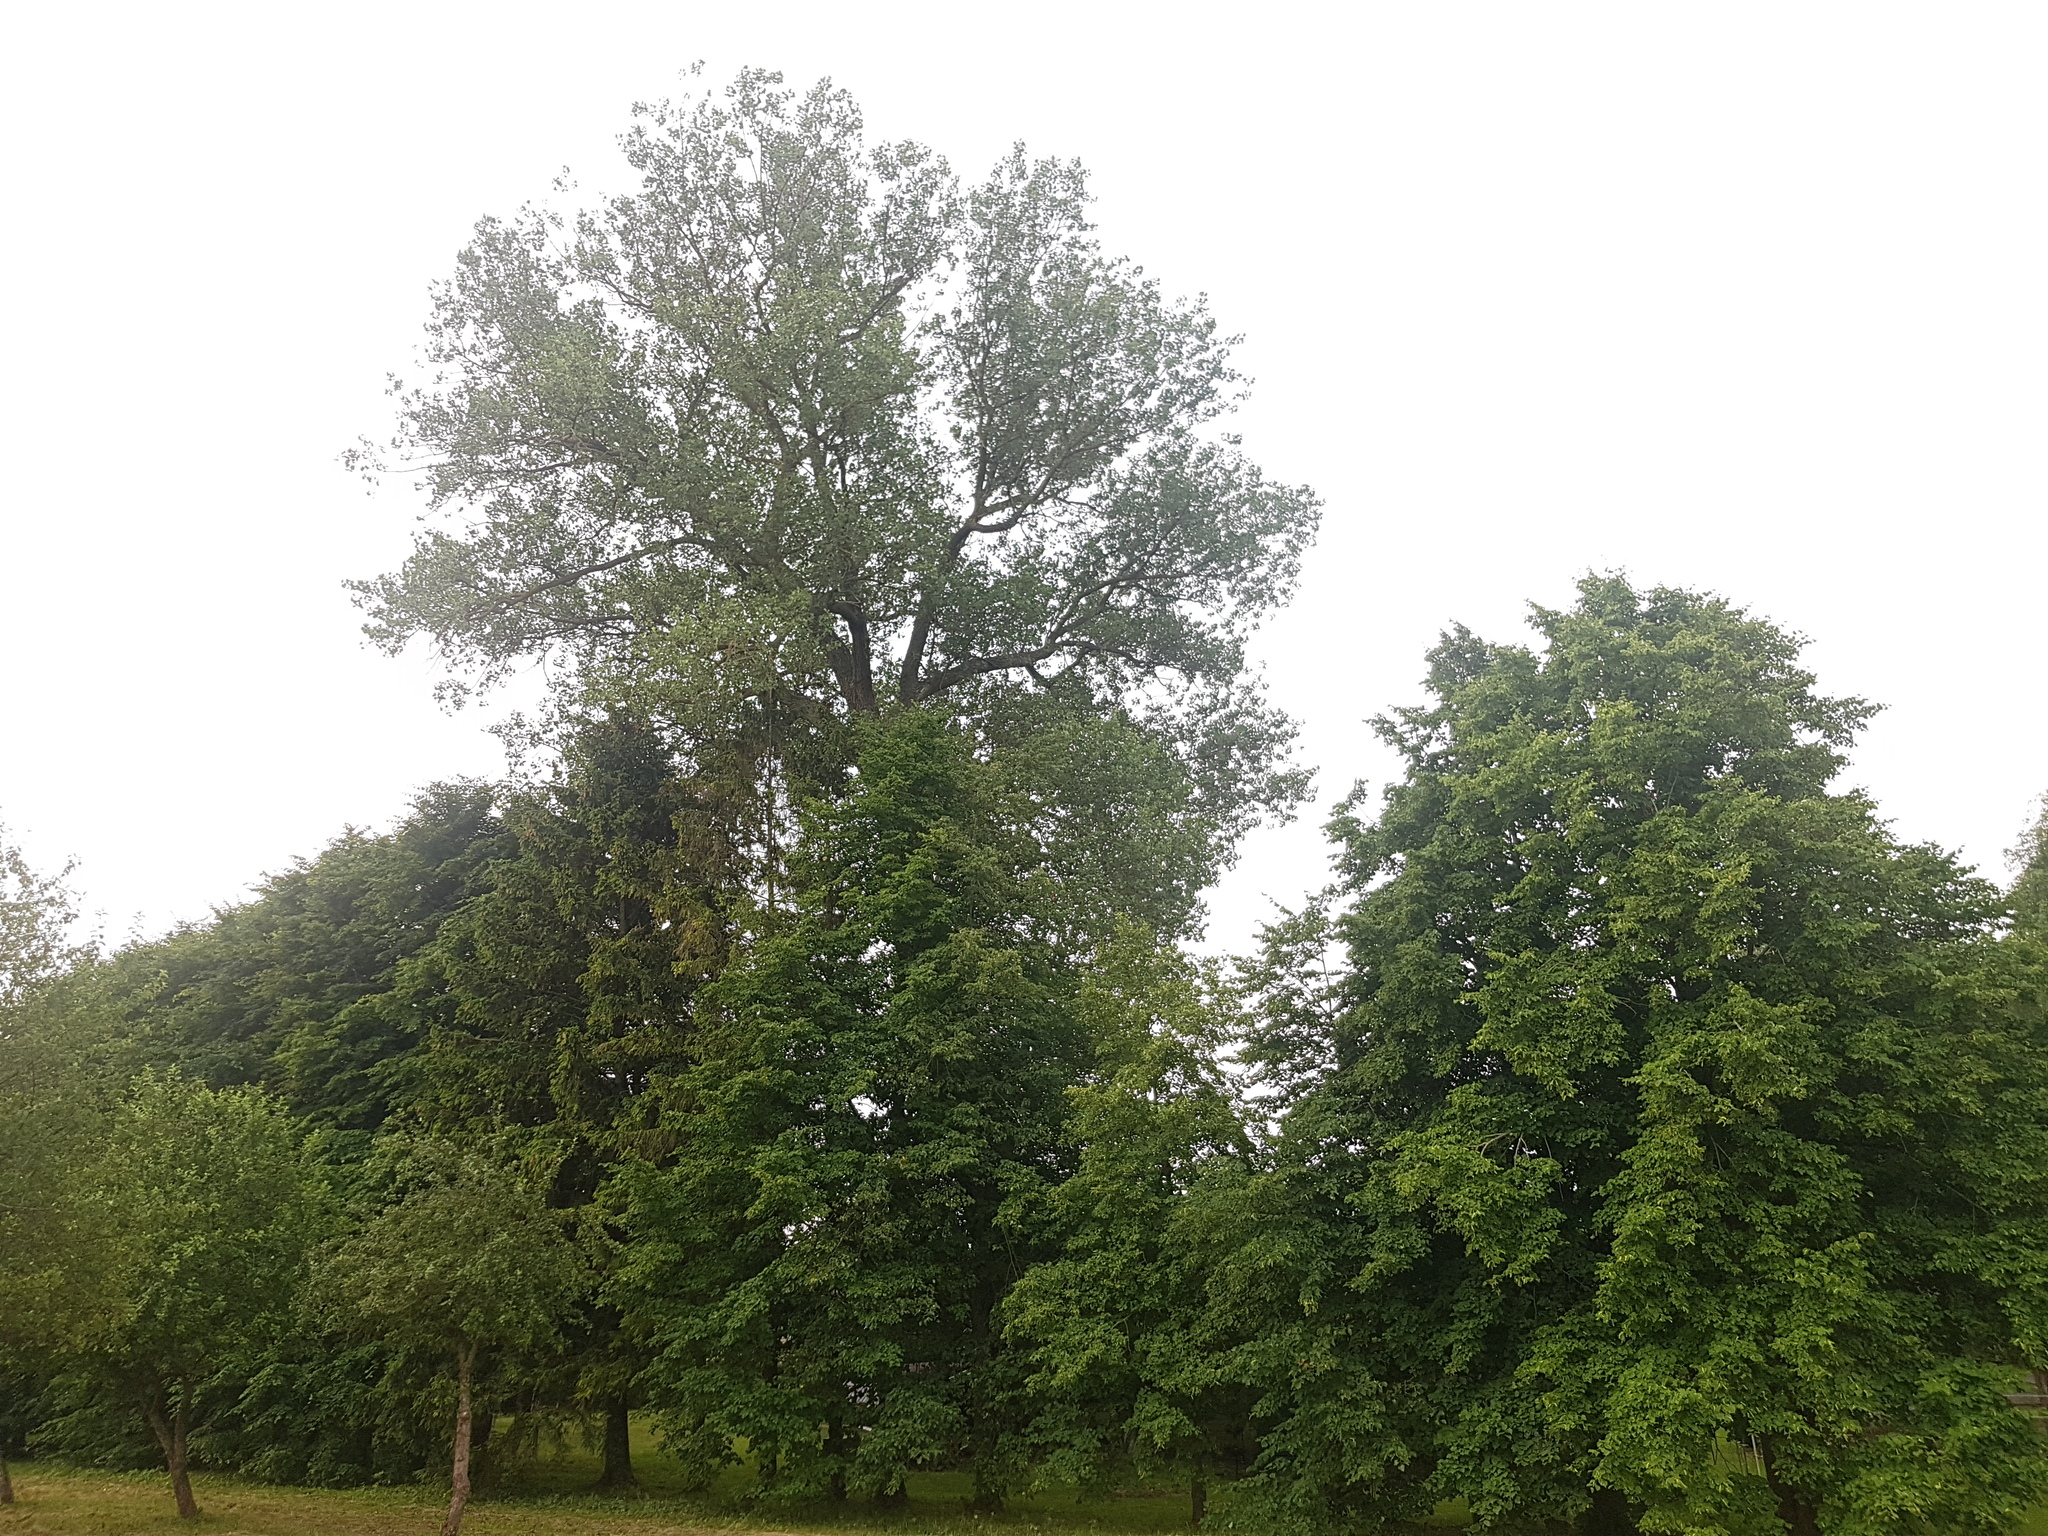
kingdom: Animalia
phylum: Chordata
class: Aves
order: Passeriformes
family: Oriolidae
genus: Oriolus
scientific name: Oriolus oriolus
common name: Eurasian golden oriole
